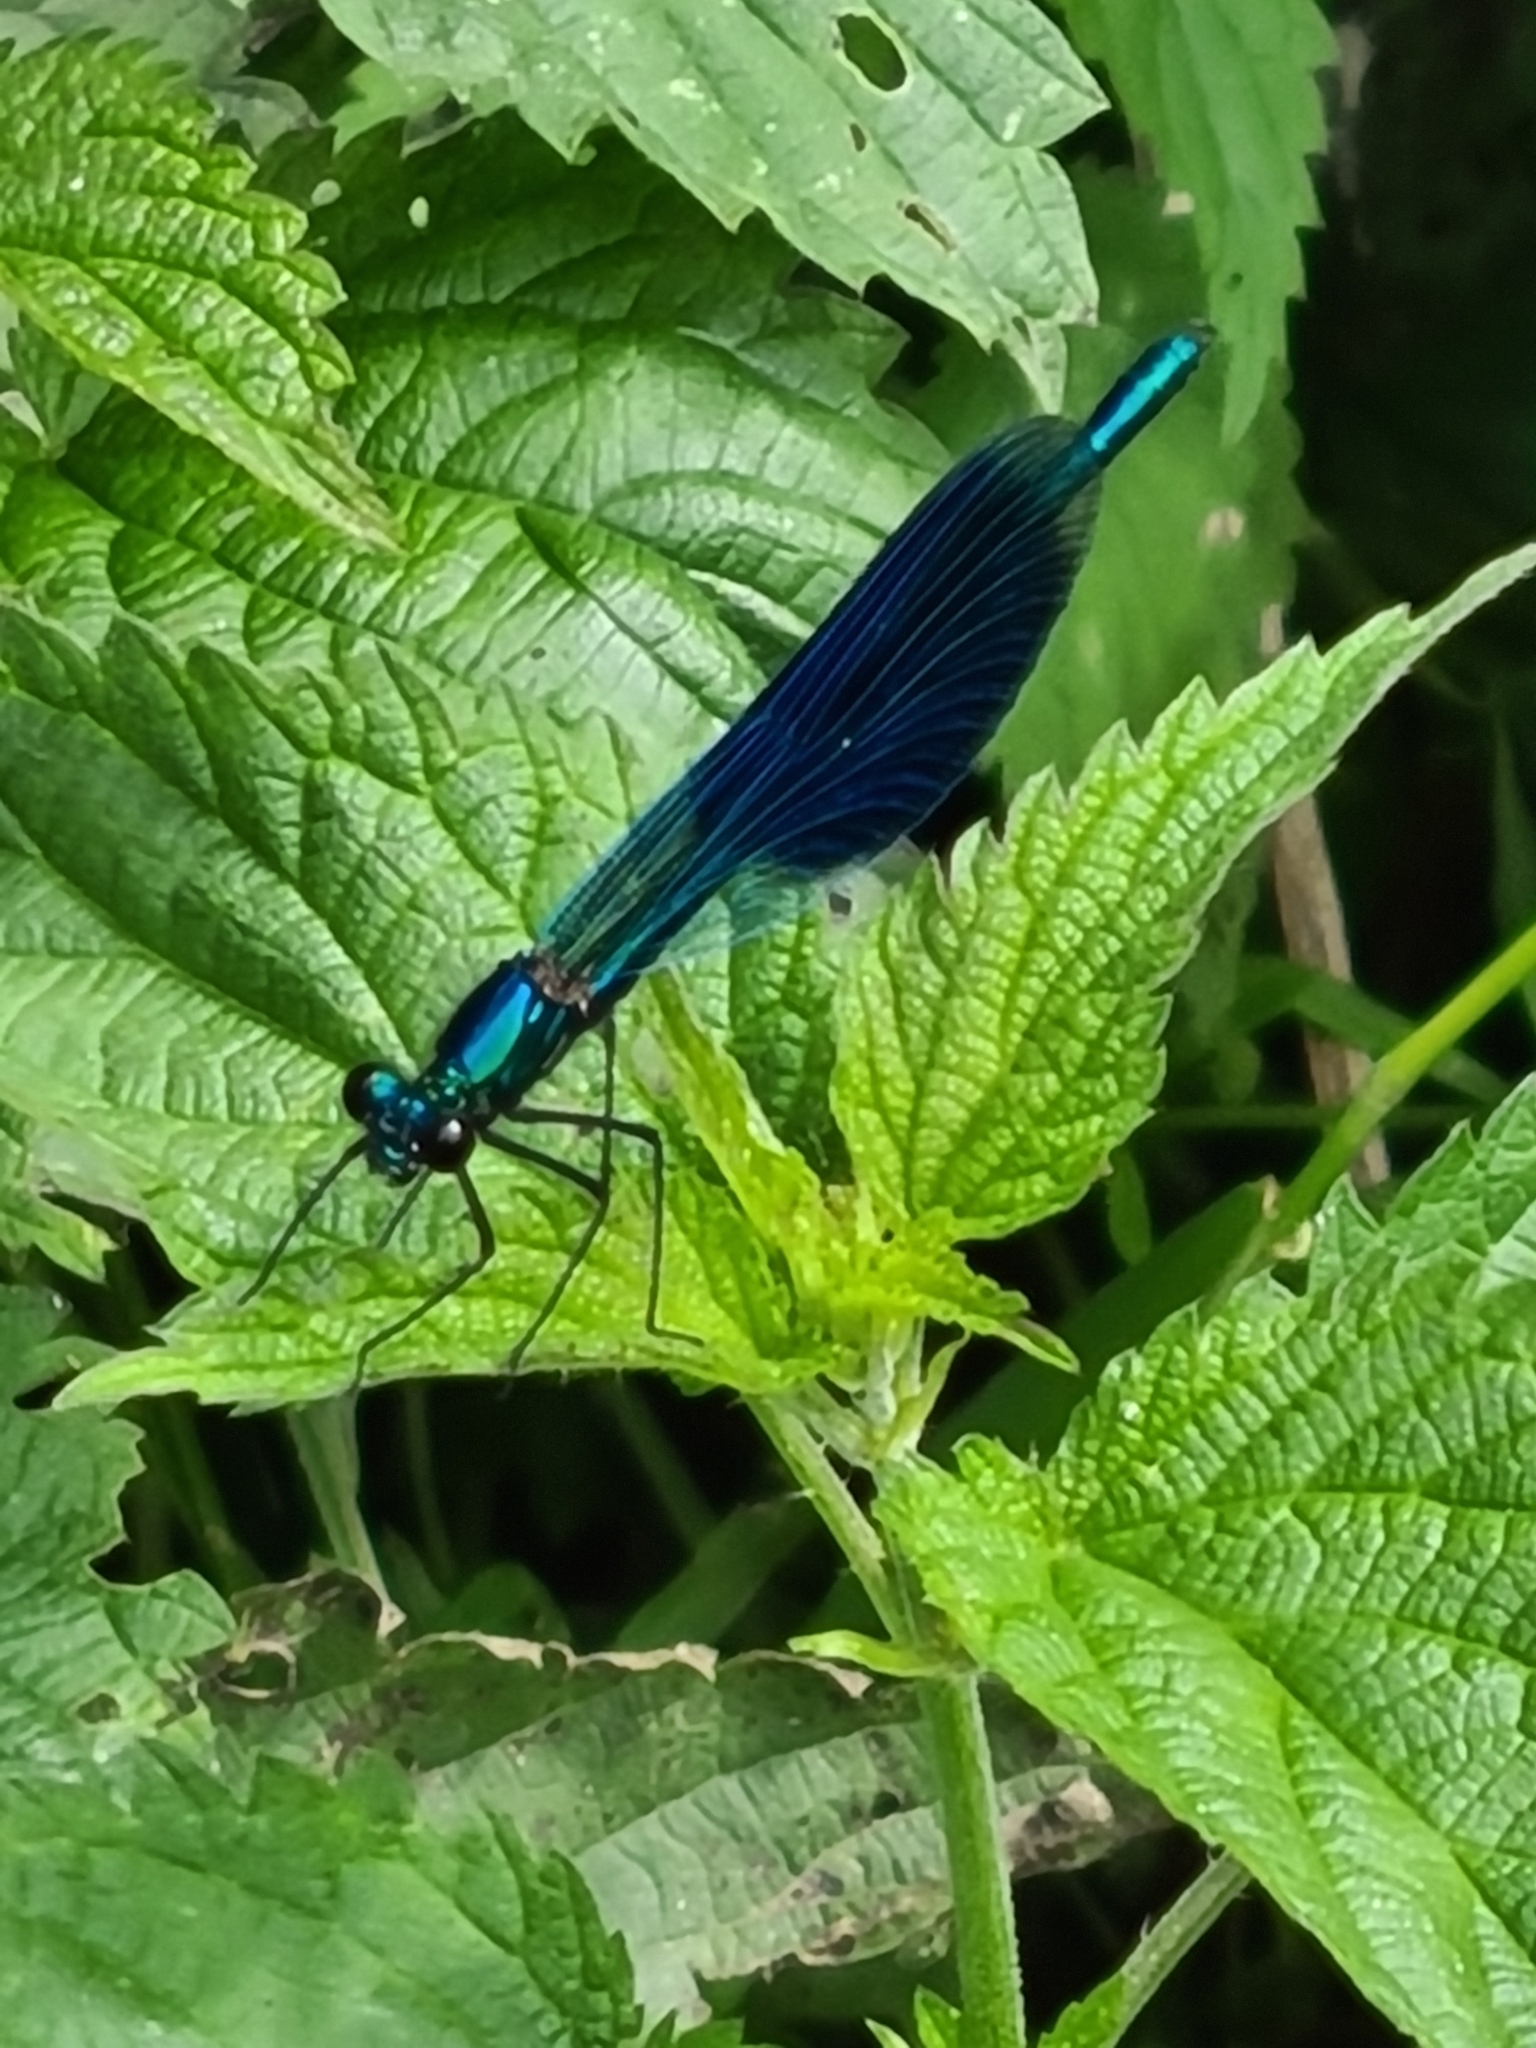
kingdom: Animalia
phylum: Arthropoda
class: Insecta
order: Odonata
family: Calopterygidae
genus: Calopteryx
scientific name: Calopteryx splendens
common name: Banded demoiselle
